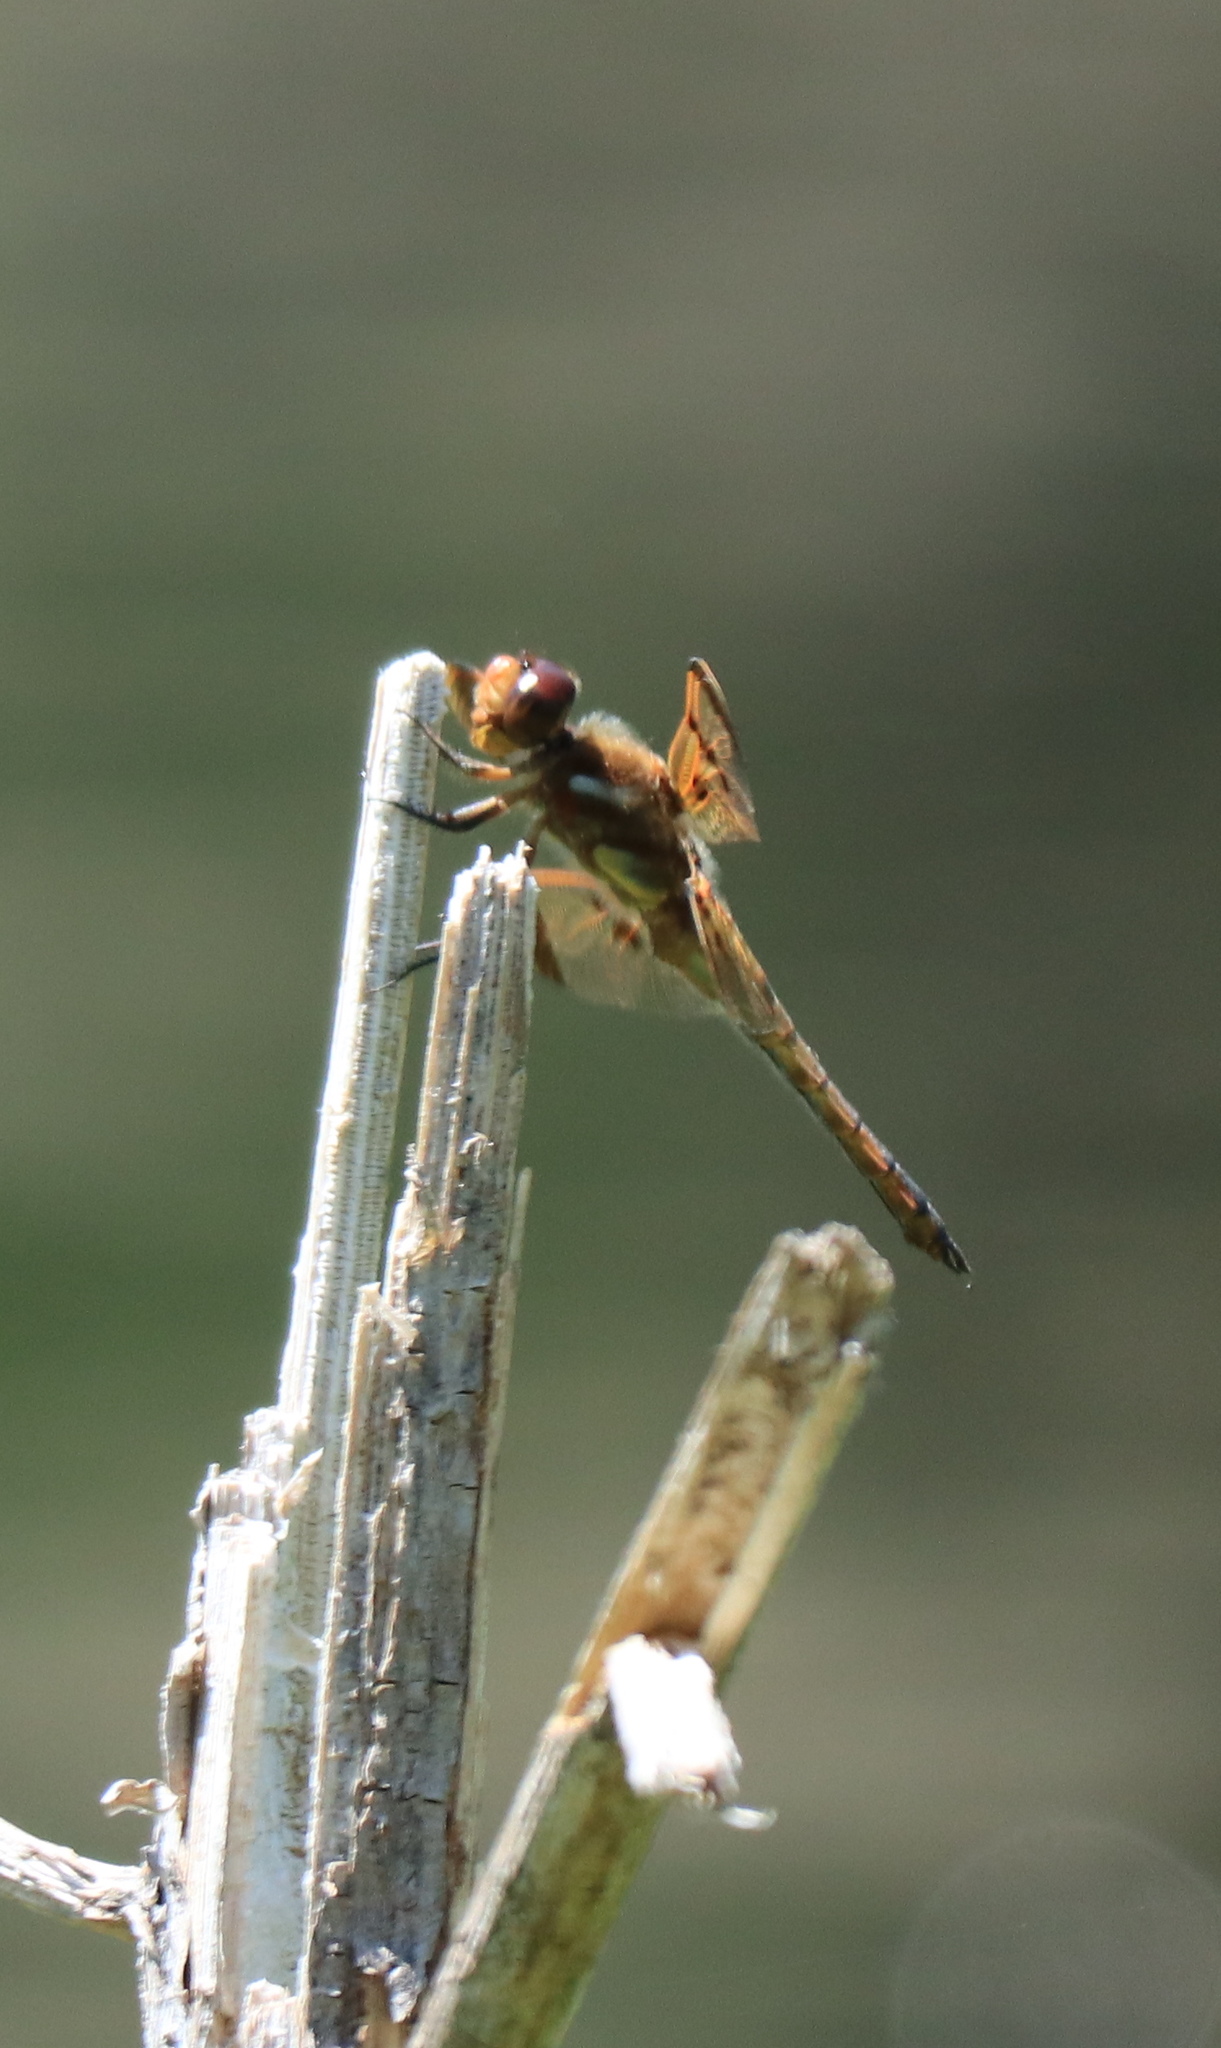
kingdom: Animalia
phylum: Arthropoda
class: Insecta
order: Odonata
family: Libellulidae
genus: Libellula
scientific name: Libellula semifasciata
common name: Painted skimmer
